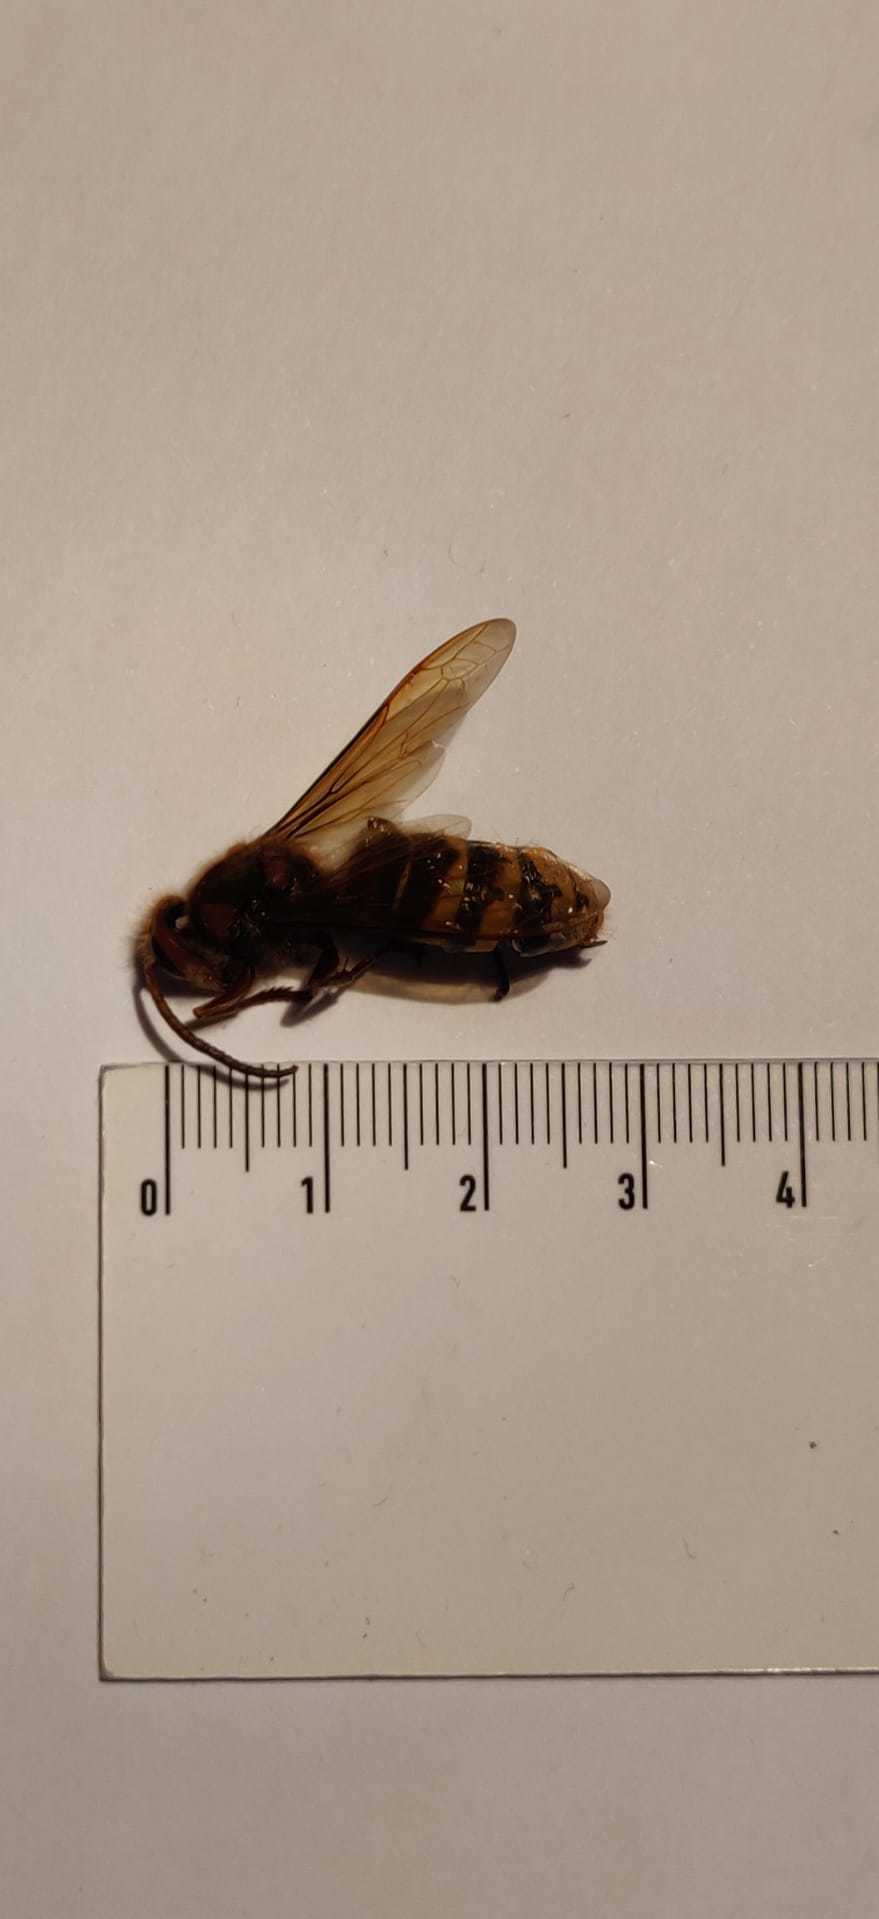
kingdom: Animalia
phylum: Arthropoda
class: Insecta
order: Hymenoptera
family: Vespidae
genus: Vespa
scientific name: Vespa crabro
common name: Hornet
